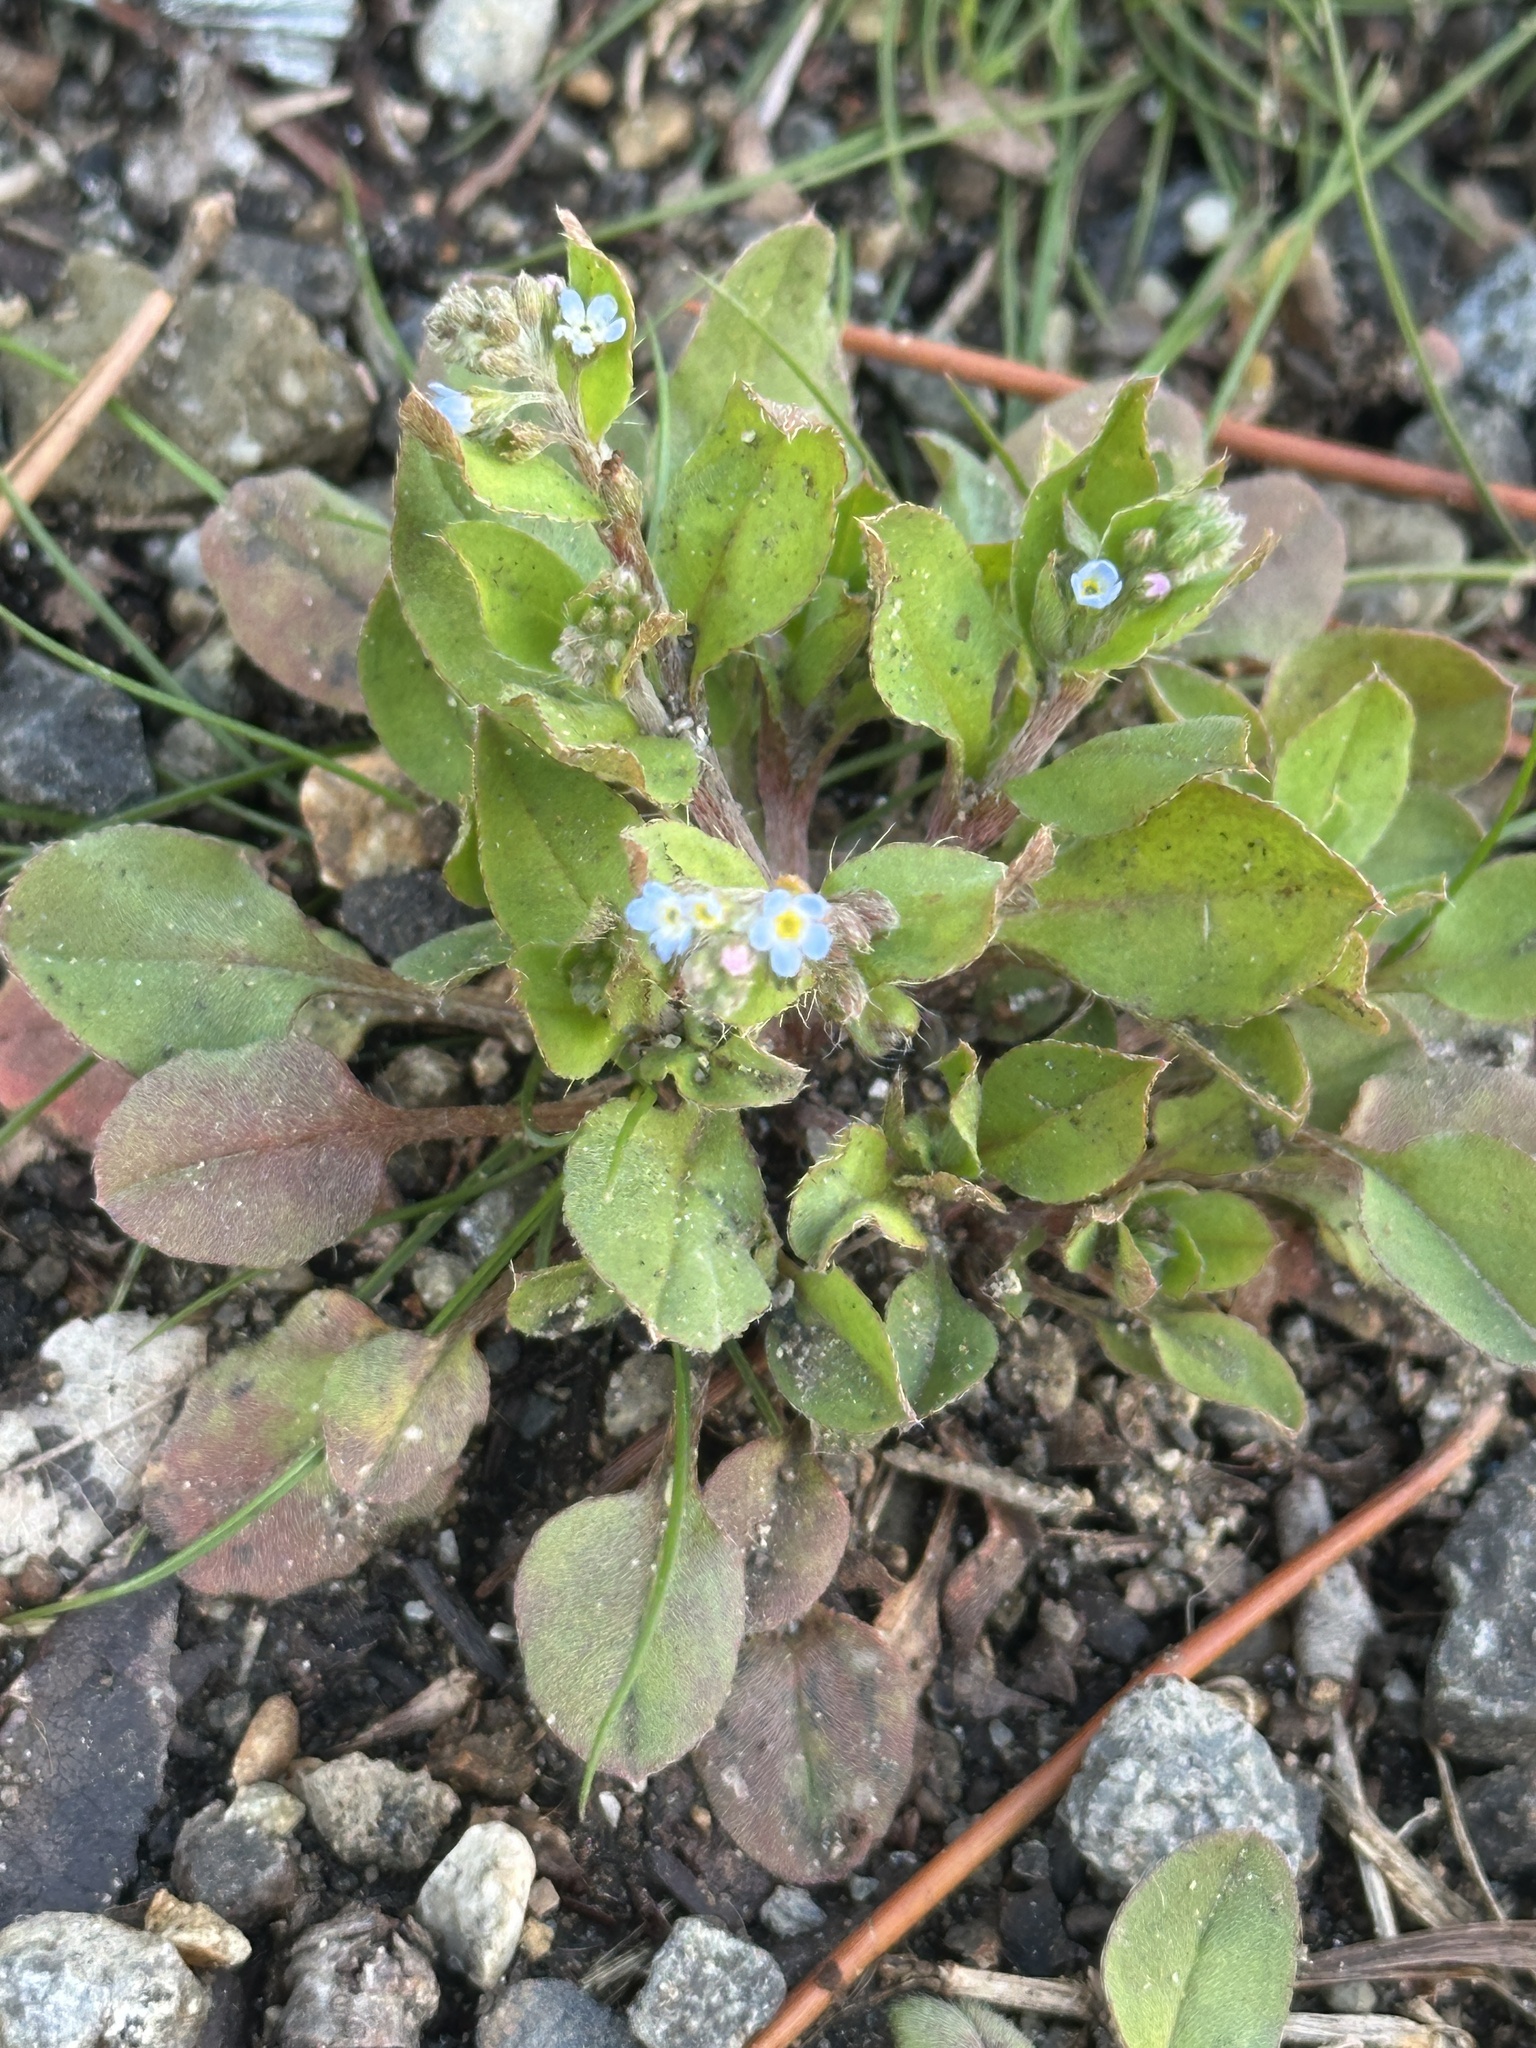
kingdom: Plantae
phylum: Tracheophyta
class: Magnoliopsida
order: Boraginales
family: Boraginaceae
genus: Trigonotis
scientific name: Trigonotis peduncularis
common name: Cucumber herb
